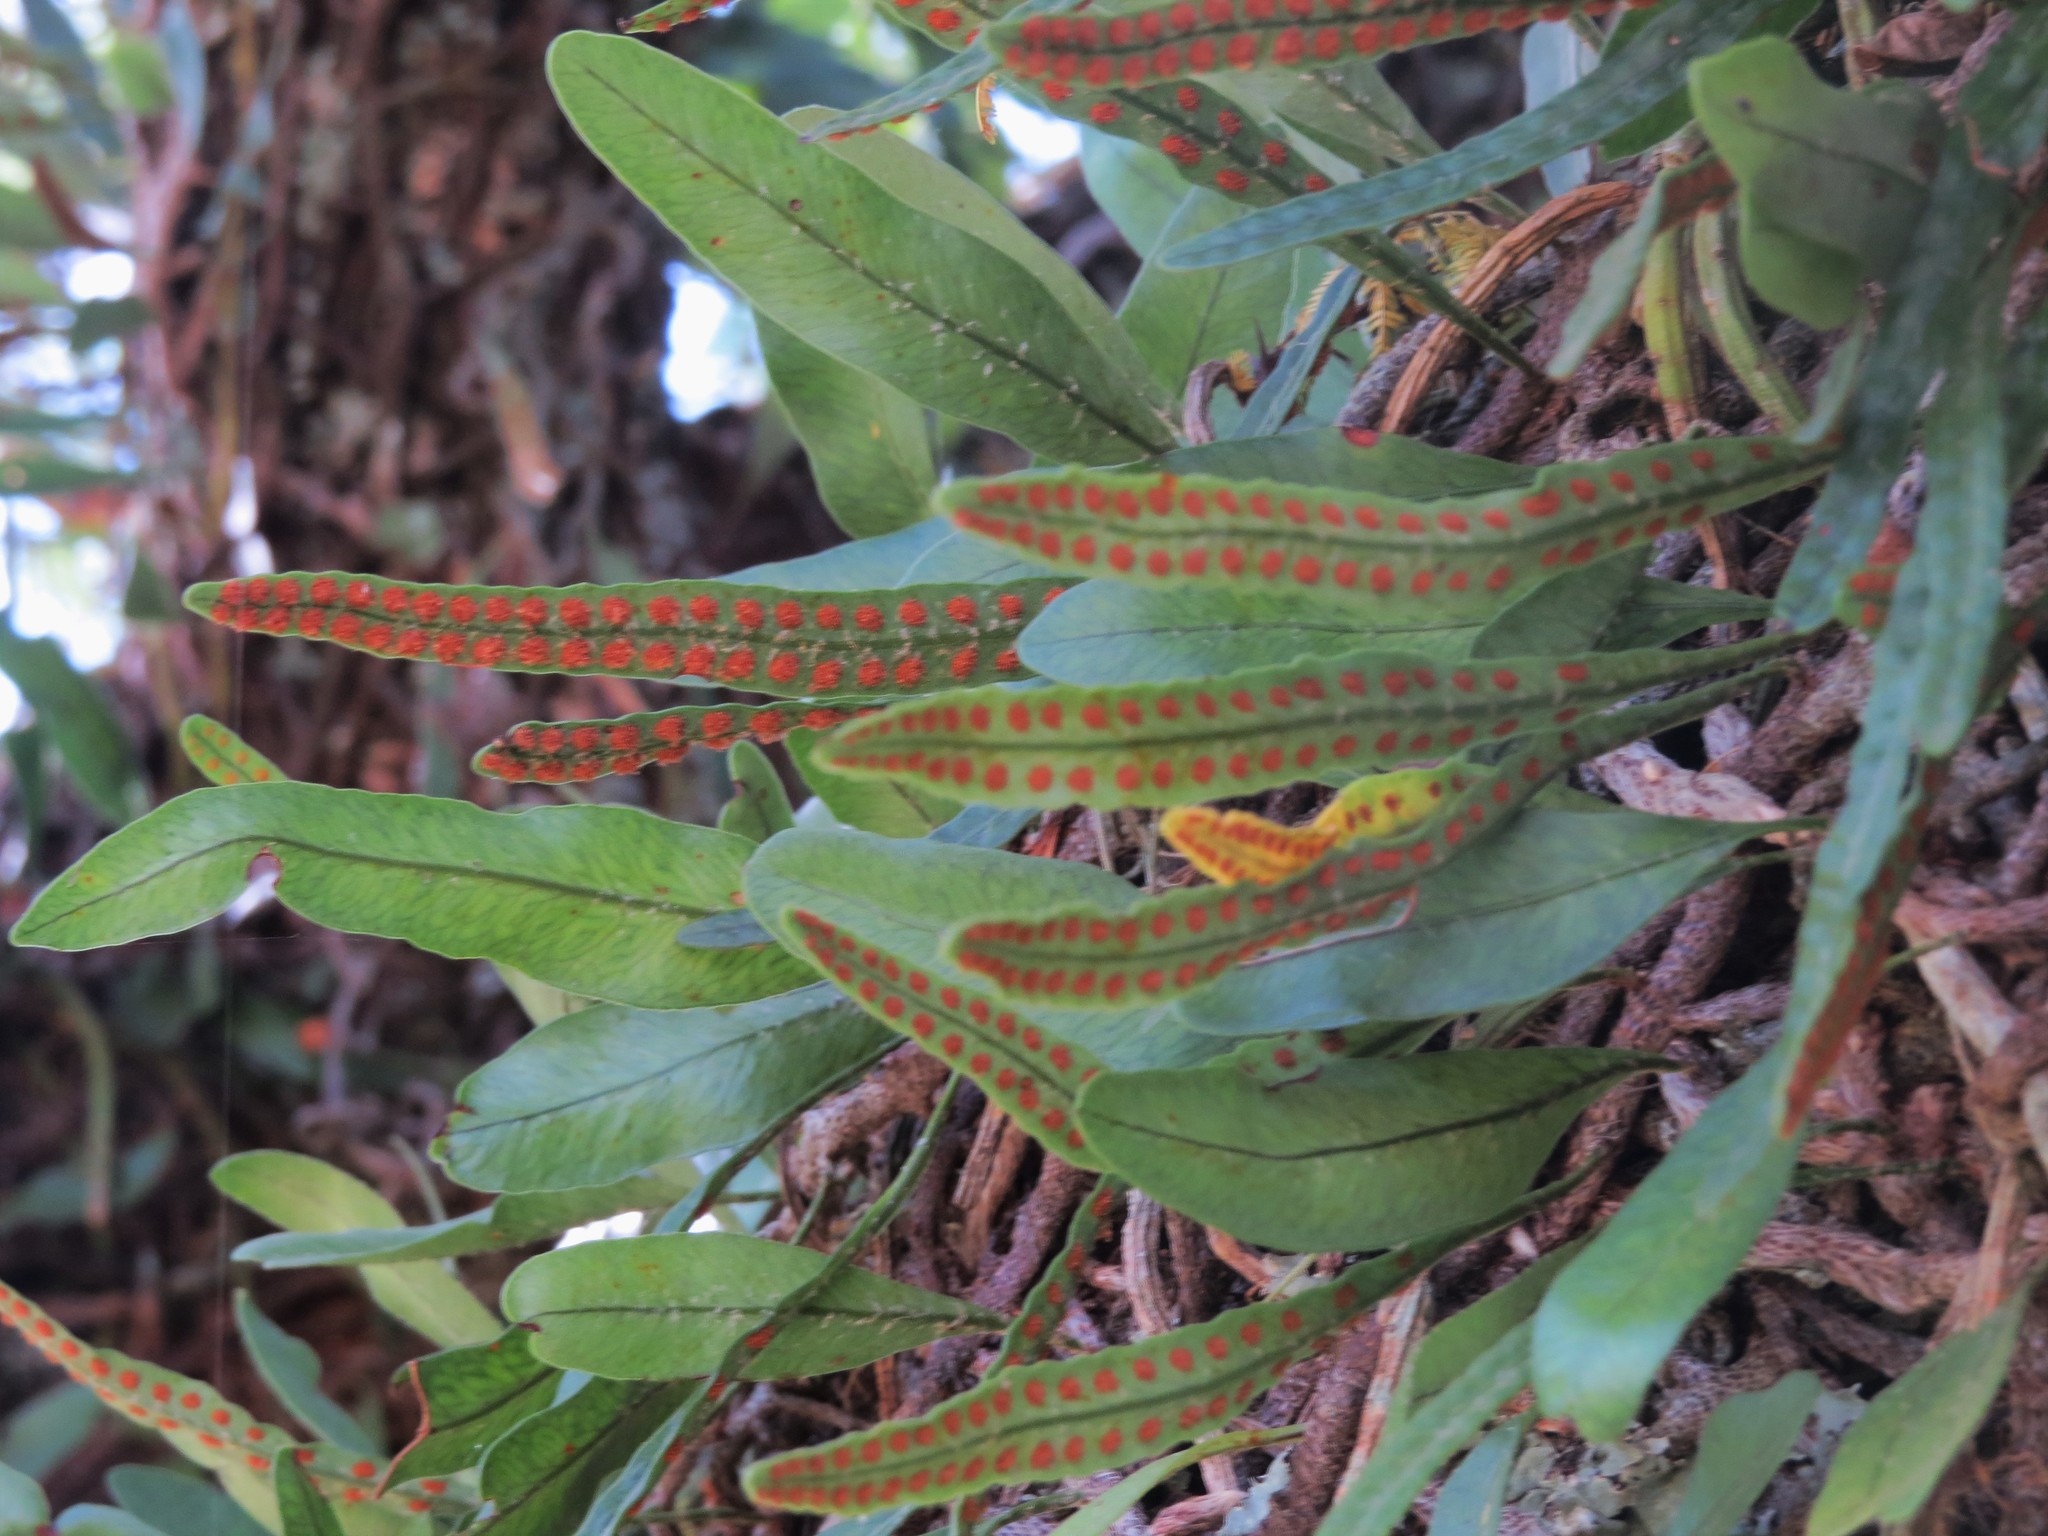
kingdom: Plantae
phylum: Tracheophyta
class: Polypodiopsida
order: Polypodiales
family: Polypodiaceae
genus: Microgramma
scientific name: Microgramma squamulosa
